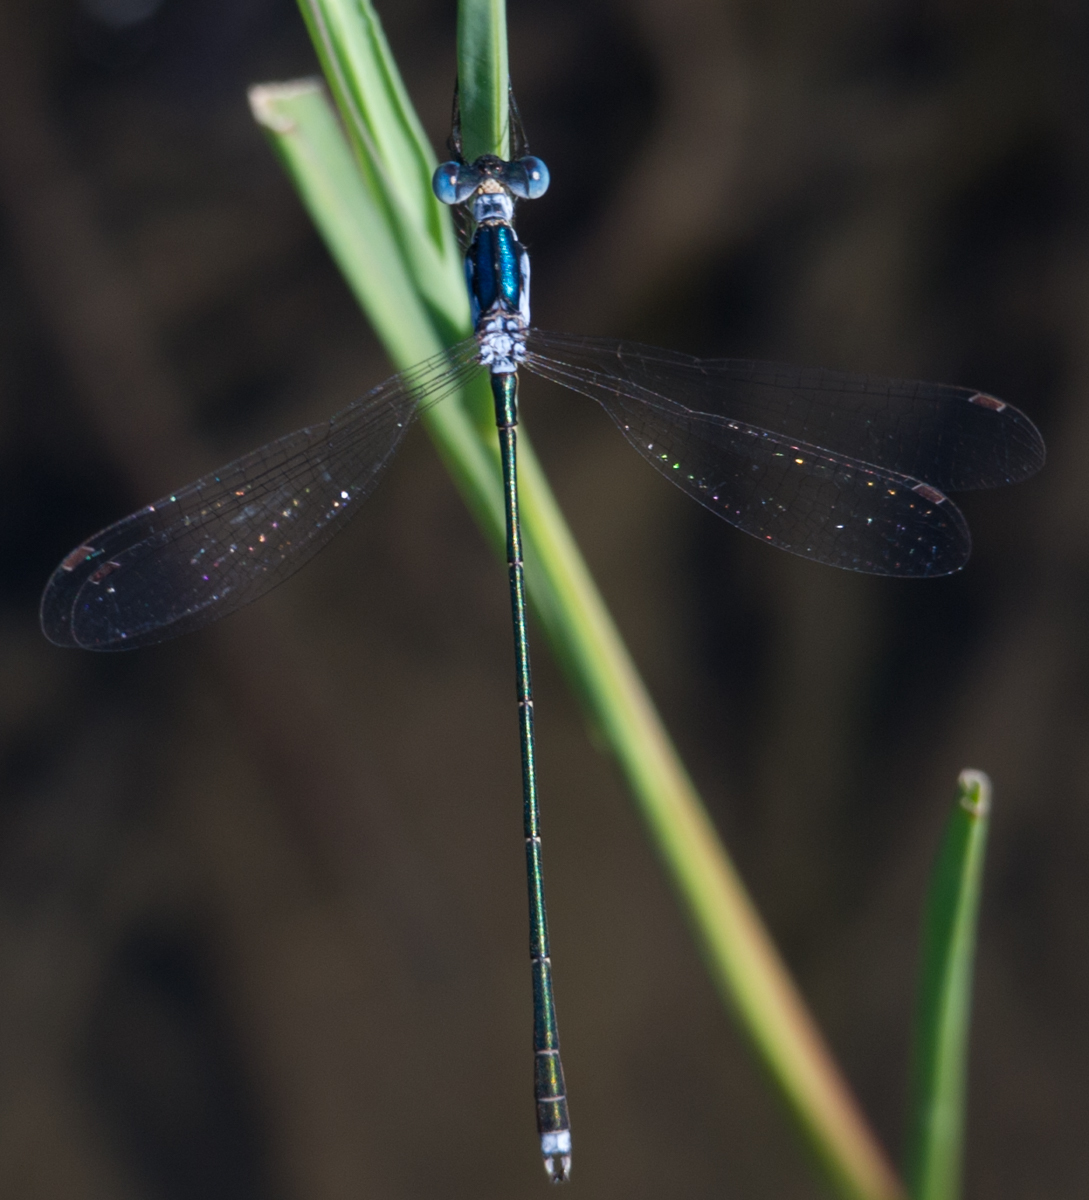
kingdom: Animalia
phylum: Arthropoda
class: Insecta
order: Odonata
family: Lestidae
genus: Lestes
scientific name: Lestes pinheyi
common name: Pinhey's spreadwing
